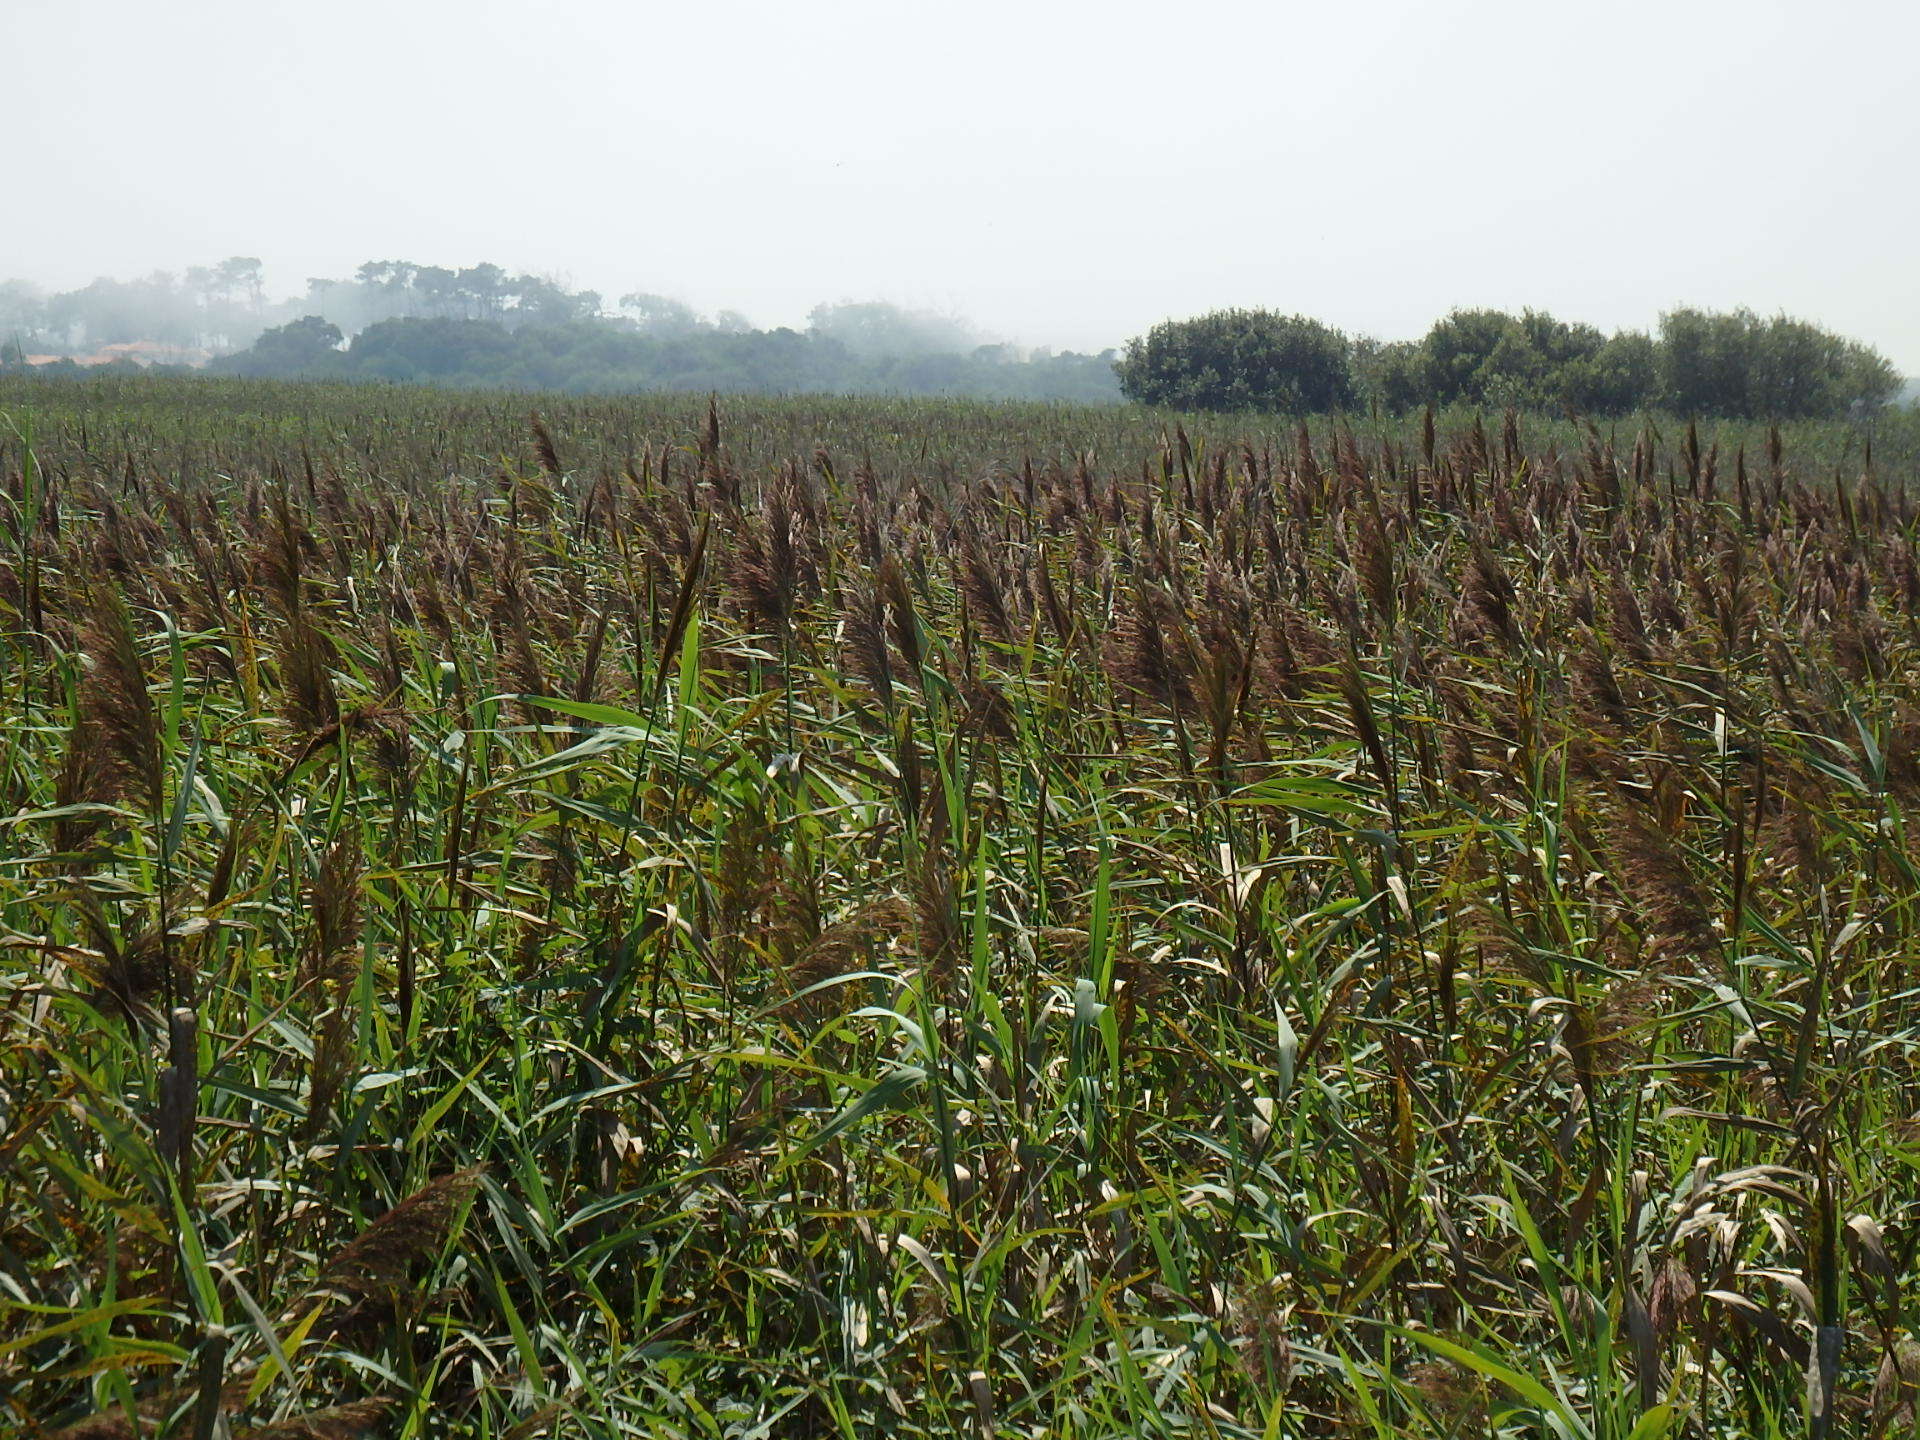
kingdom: Plantae
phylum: Tracheophyta
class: Liliopsida
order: Poales
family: Poaceae
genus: Phragmites
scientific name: Phragmites australis
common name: Common reed
